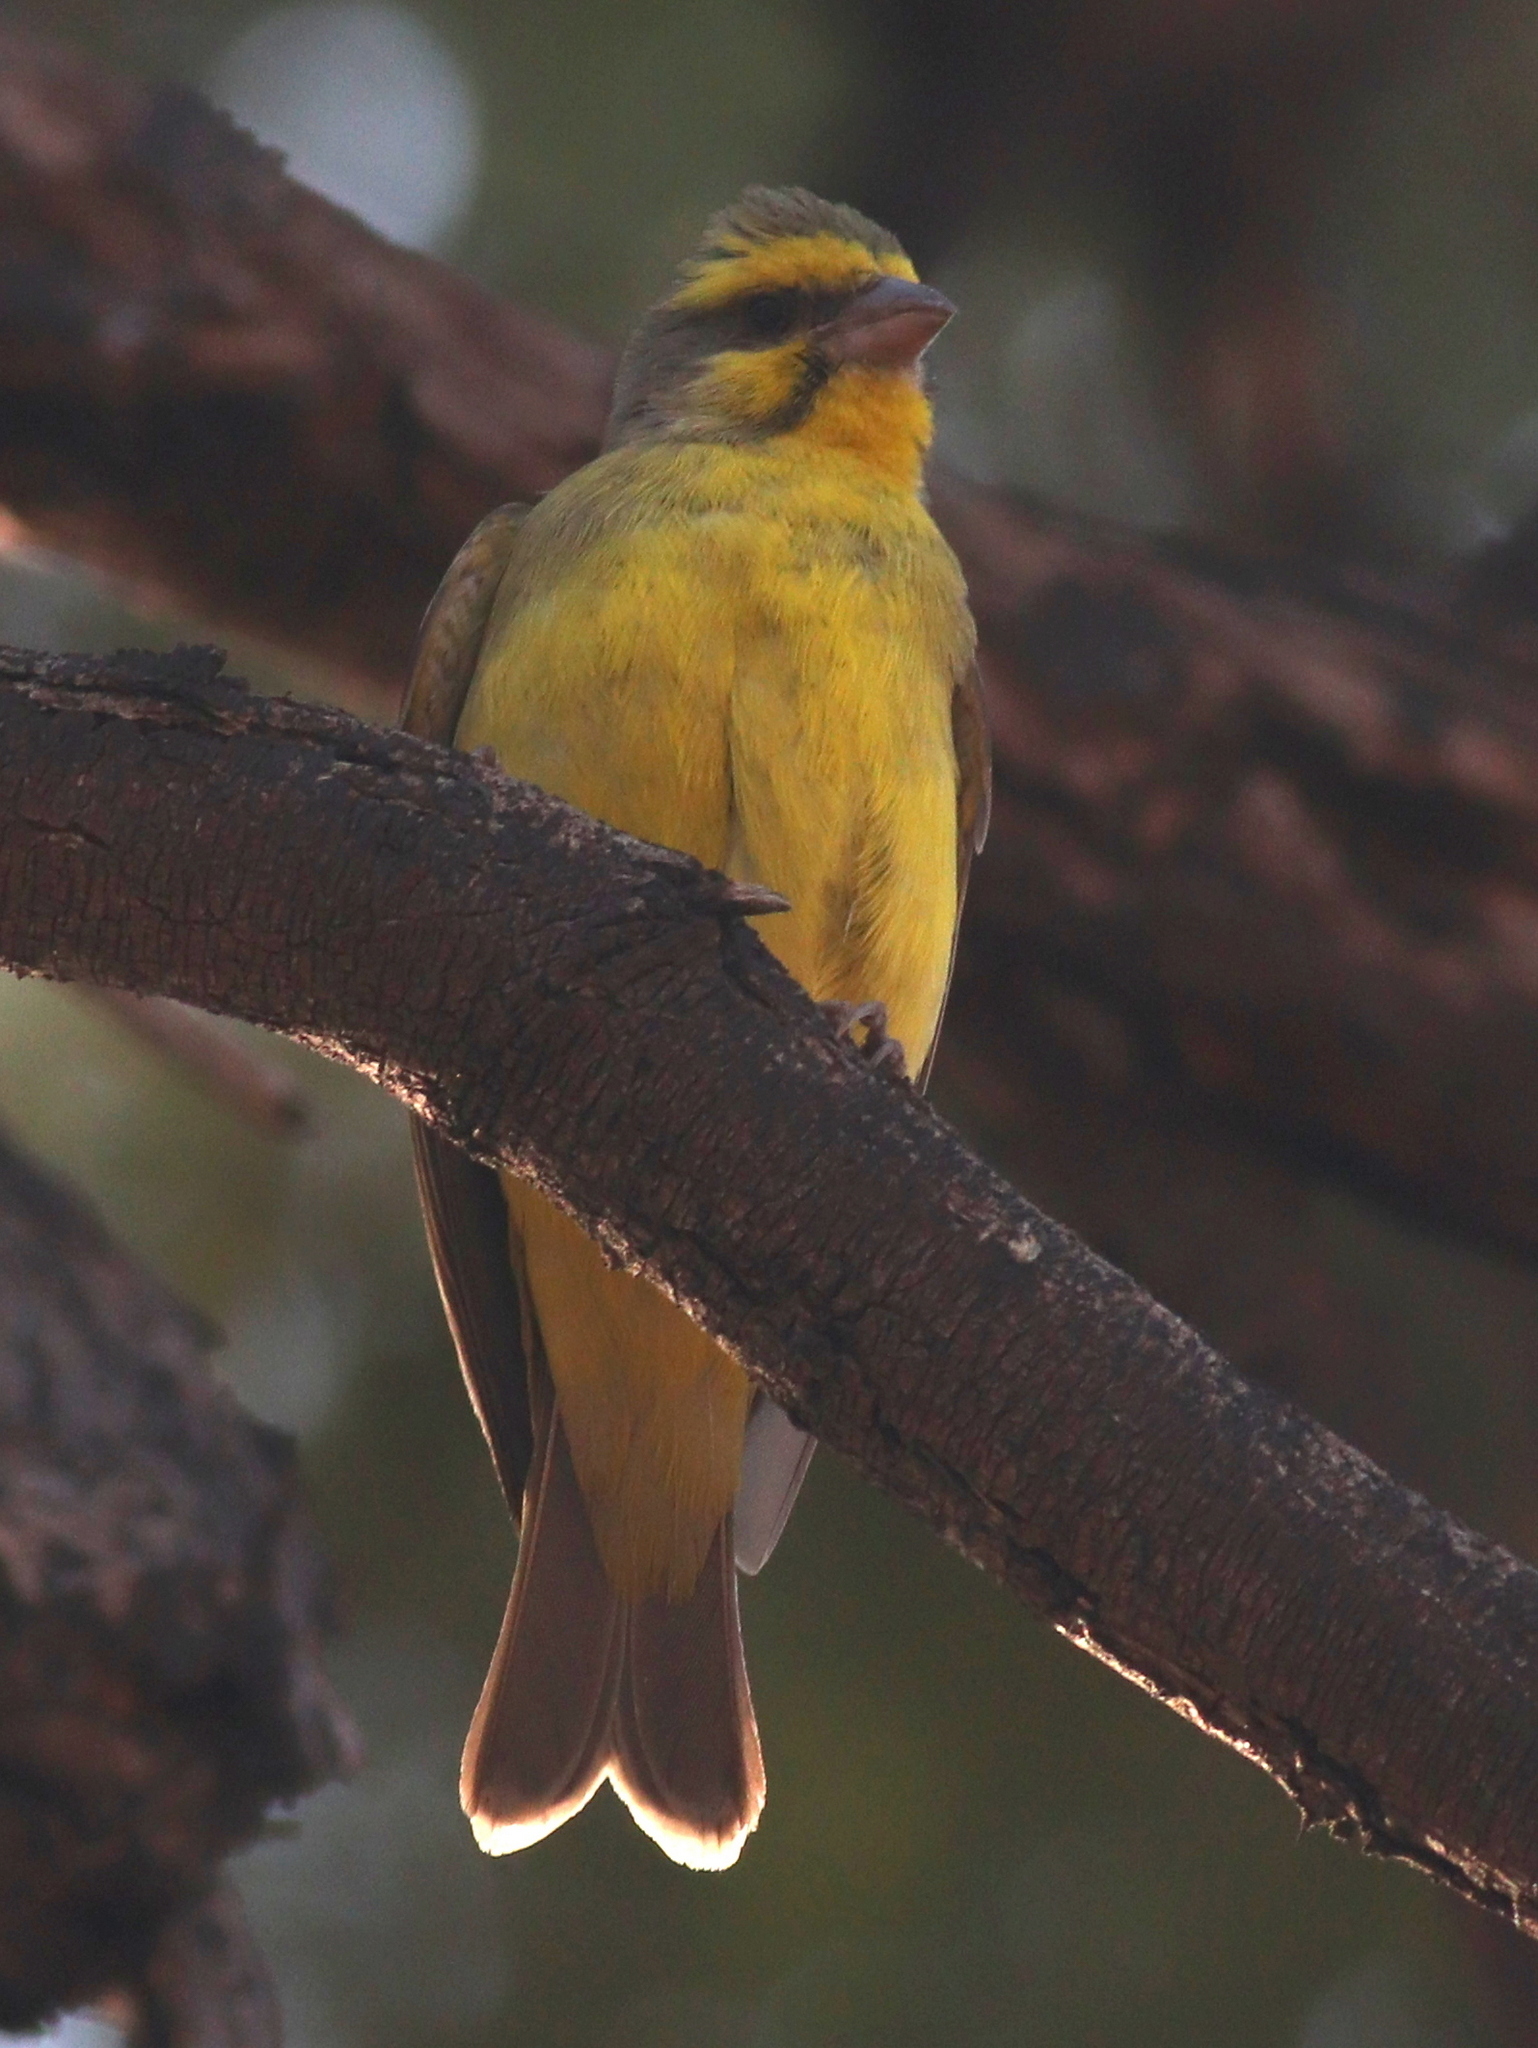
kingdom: Animalia
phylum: Chordata
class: Aves
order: Passeriformes
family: Fringillidae
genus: Crithagra
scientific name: Crithagra mozambica
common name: Yellow-fronted canary
